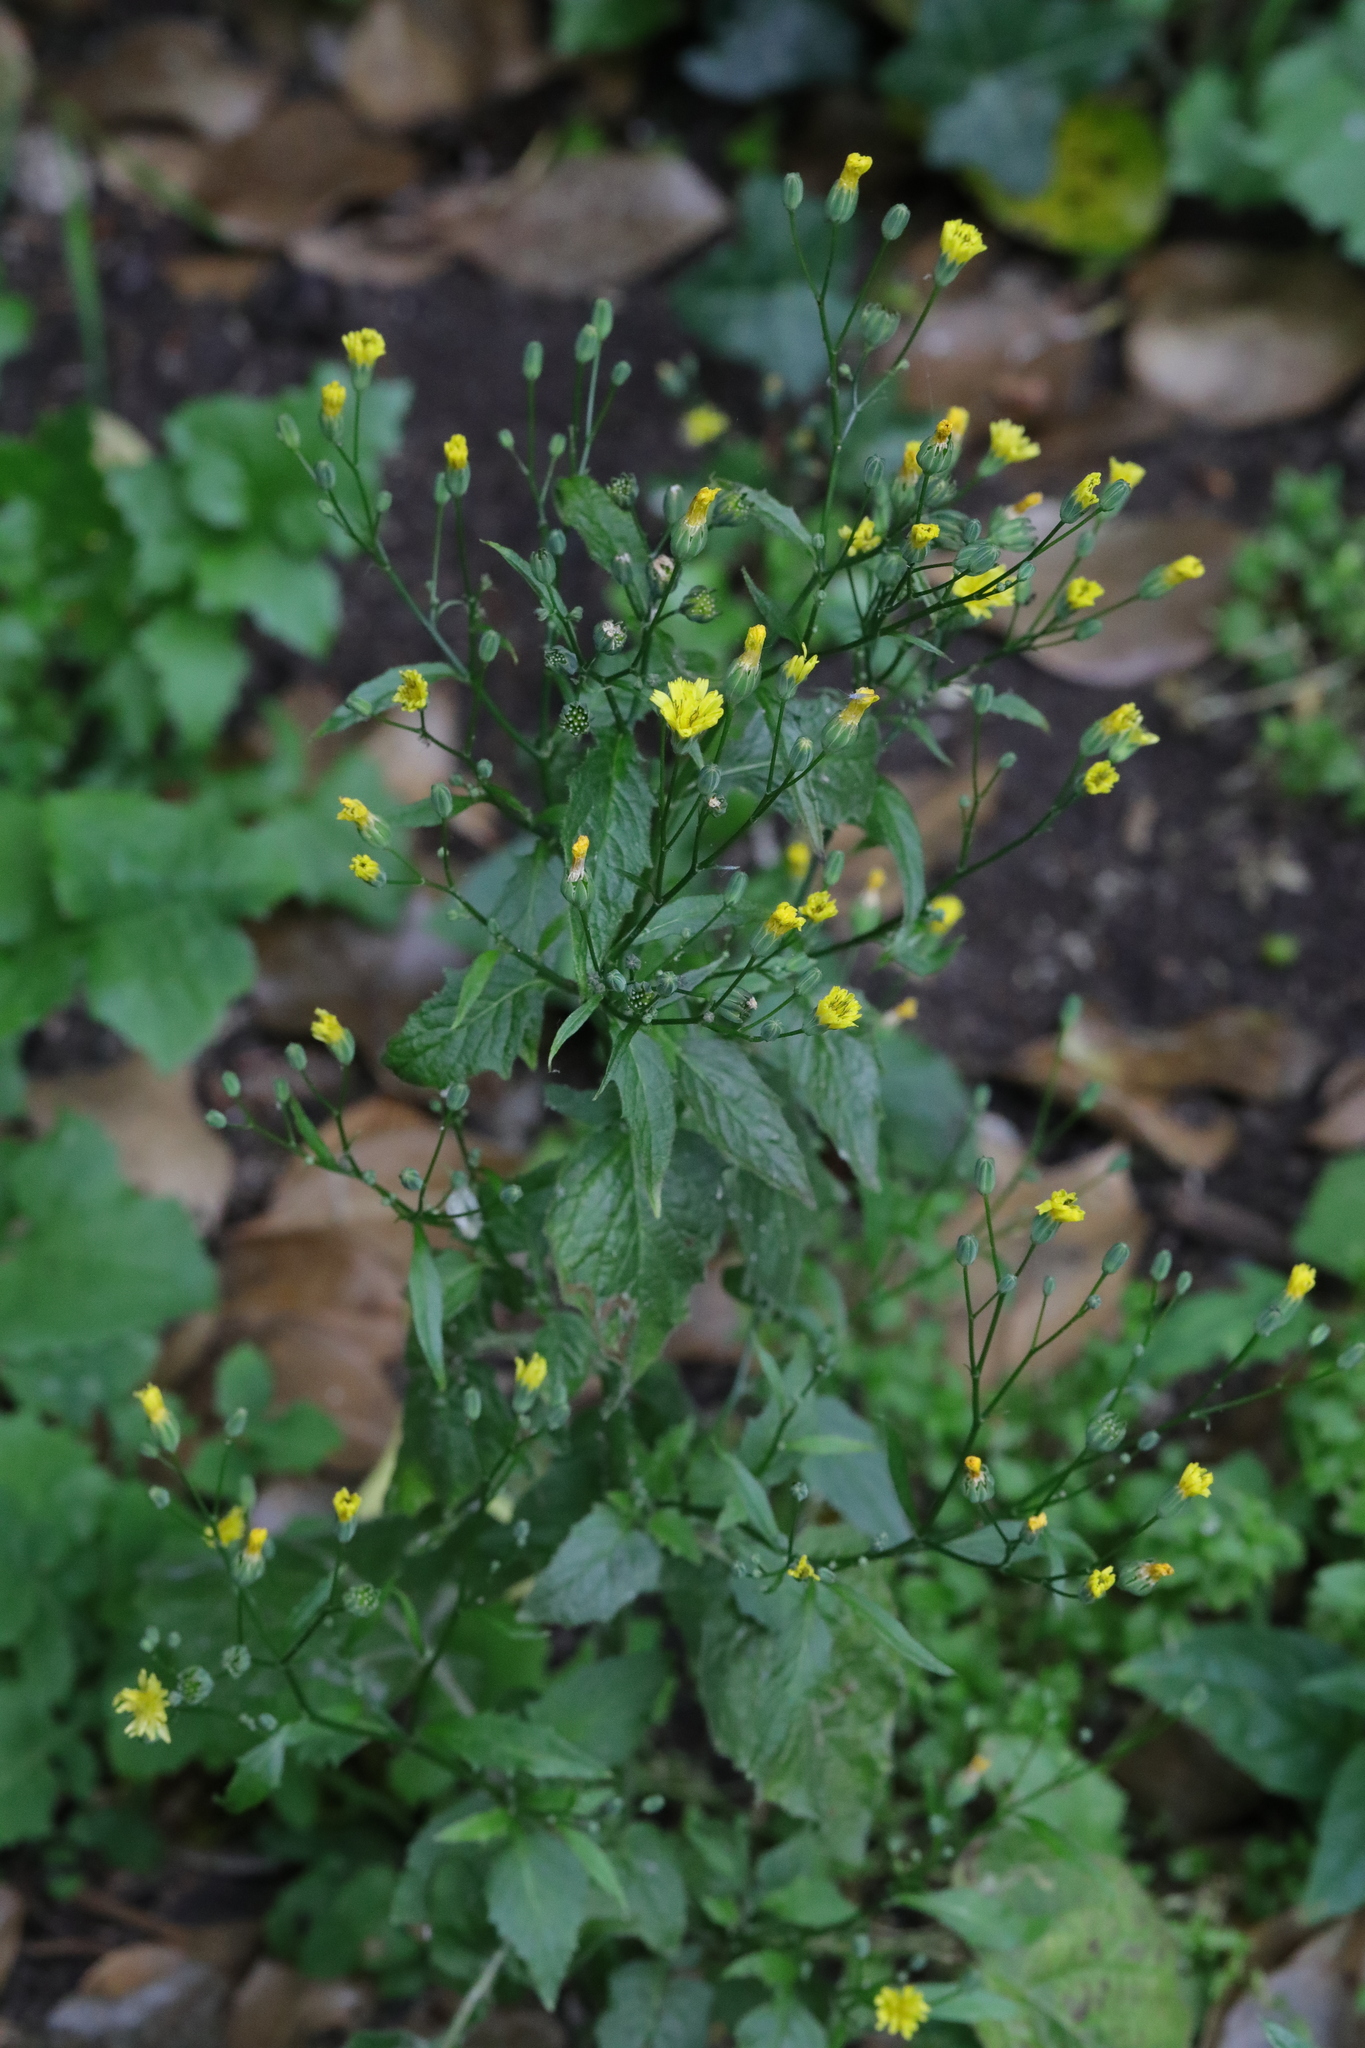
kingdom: Plantae
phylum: Tracheophyta
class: Magnoliopsida
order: Asterales
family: Asteraceae
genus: Lapsana
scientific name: Lapsana communis
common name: Nipplewort
